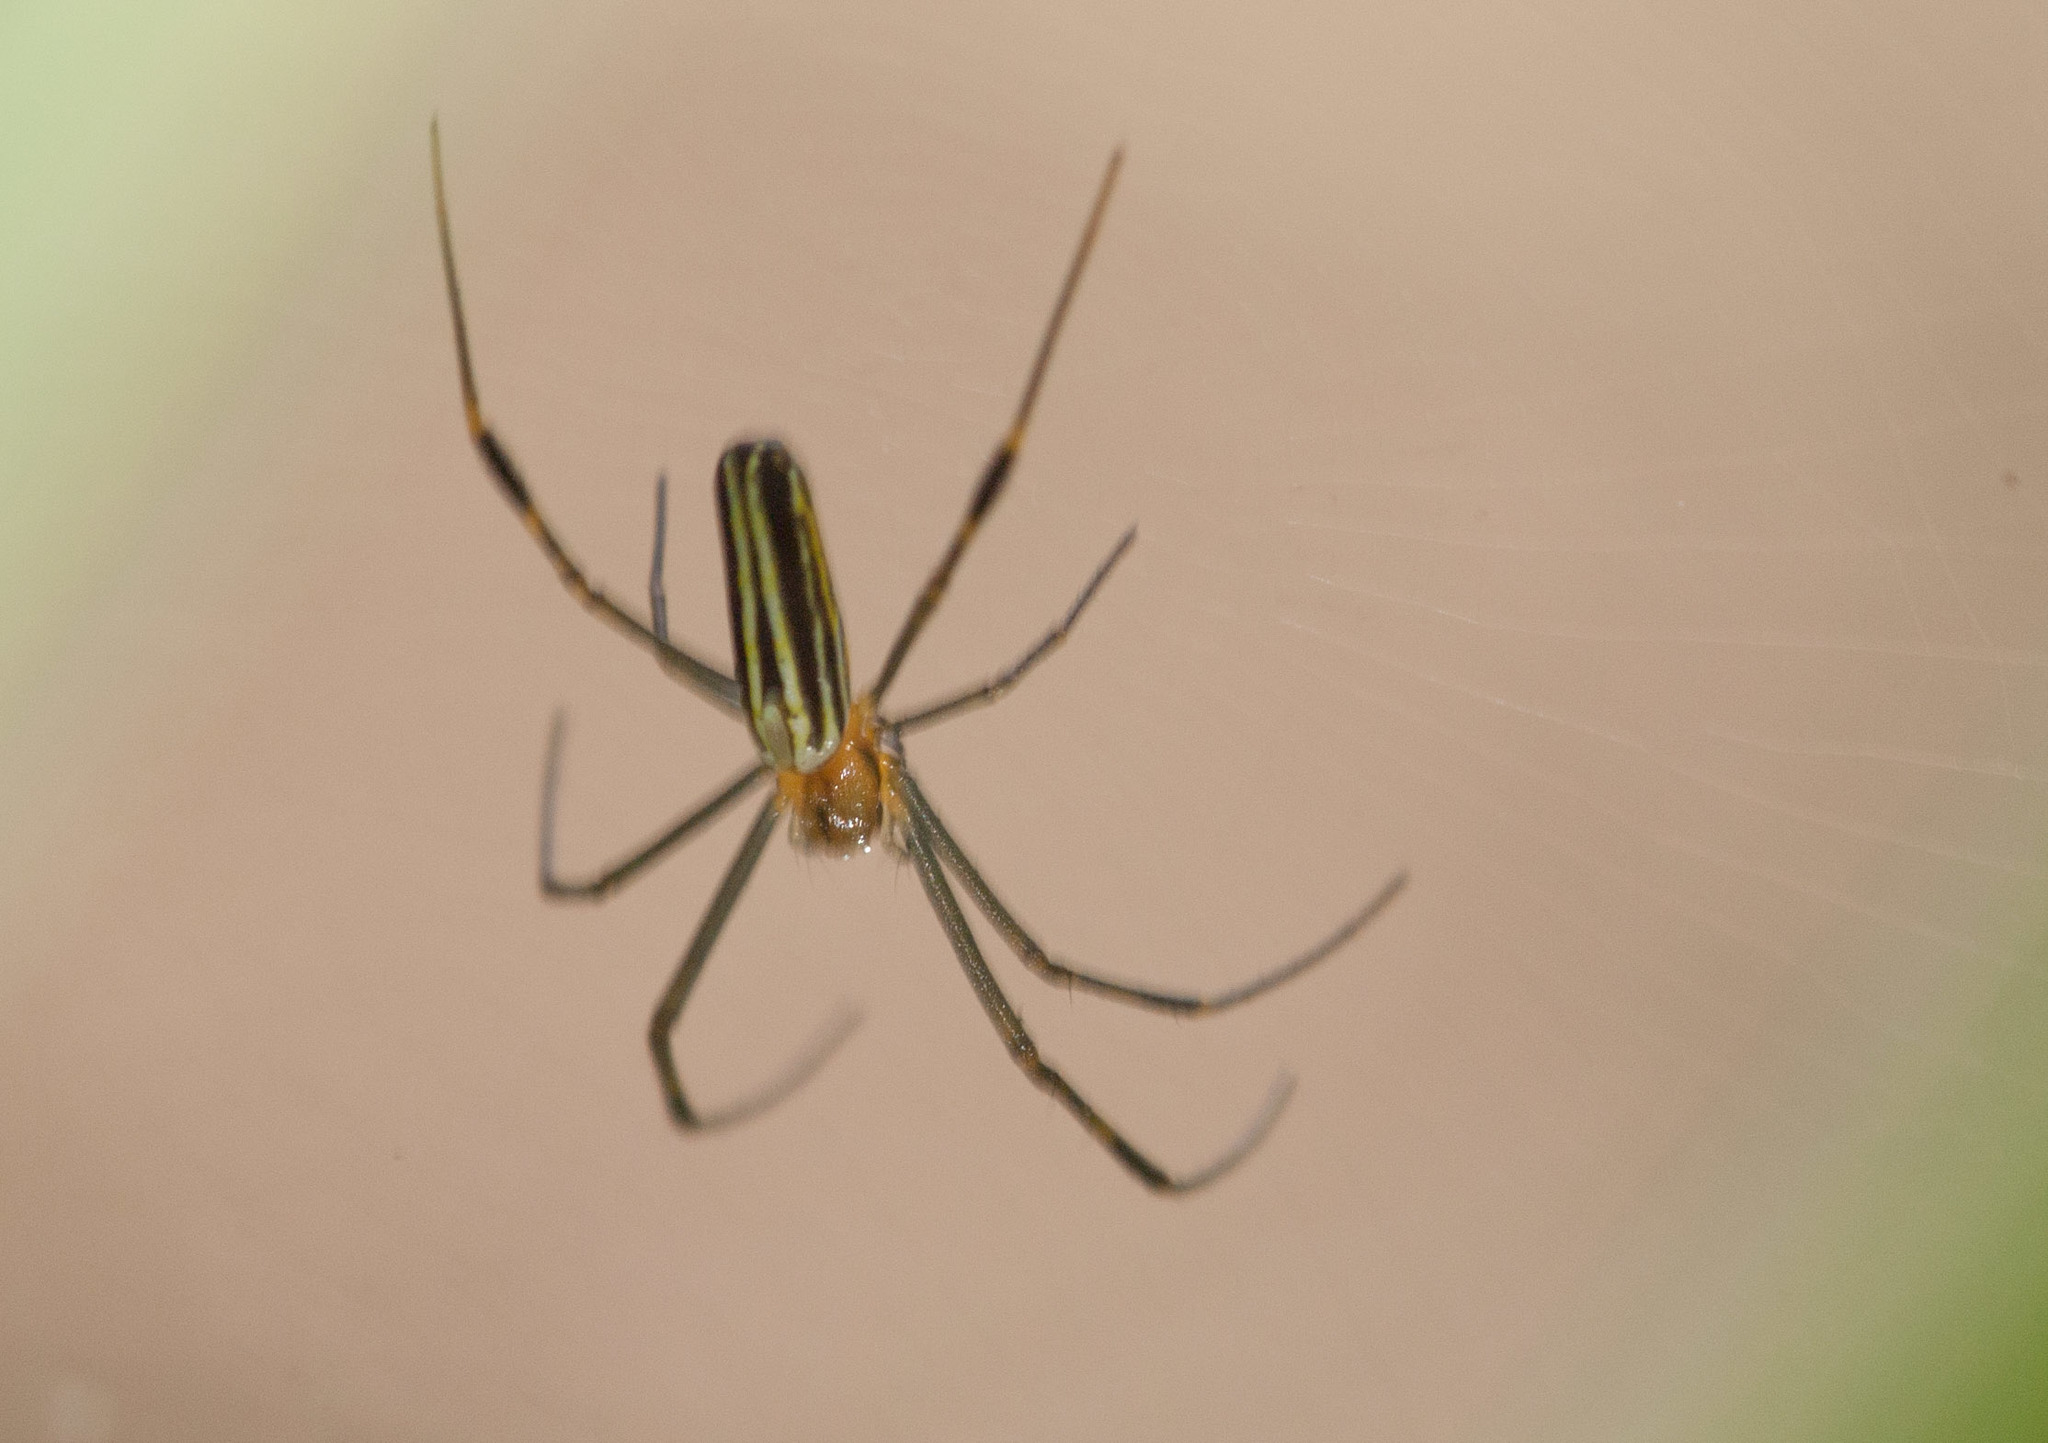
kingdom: Animalia
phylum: Arthropoda
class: Arachnida
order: Araneae
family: Araneidae
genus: Nephila
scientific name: Nephila pilipes
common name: Giant golden orb weaver
